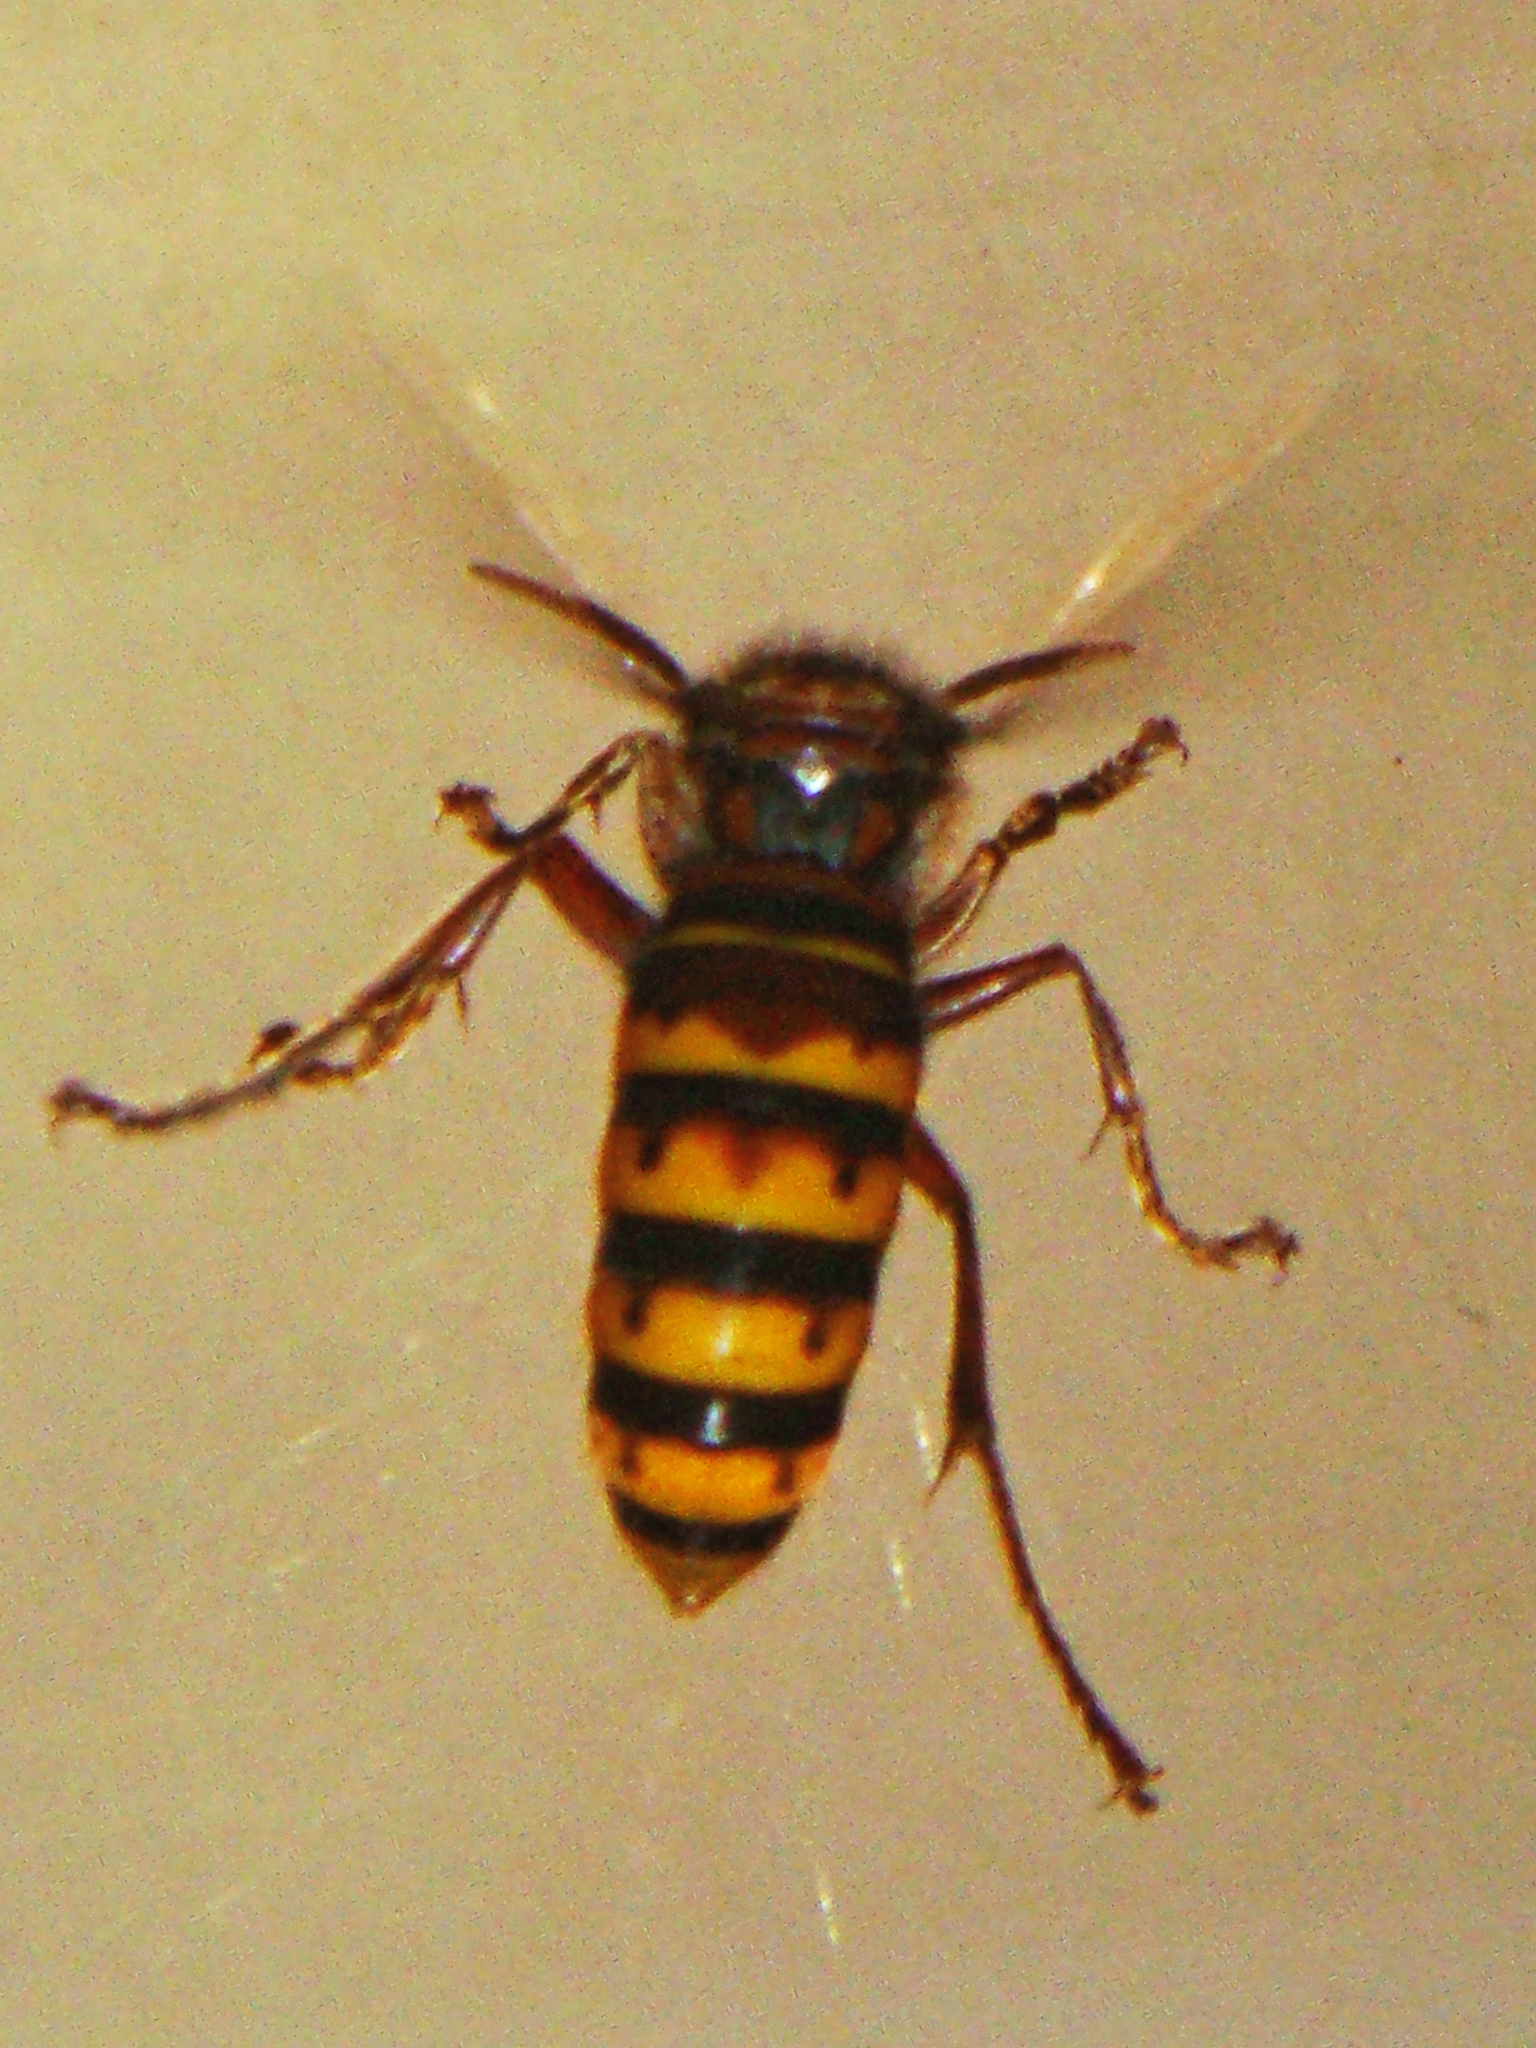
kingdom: Animalia
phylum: Arthropoda
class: Insecta
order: Hymenoptera
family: Vespidae
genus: Vespa
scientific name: Vespa crabro
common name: Hornet
